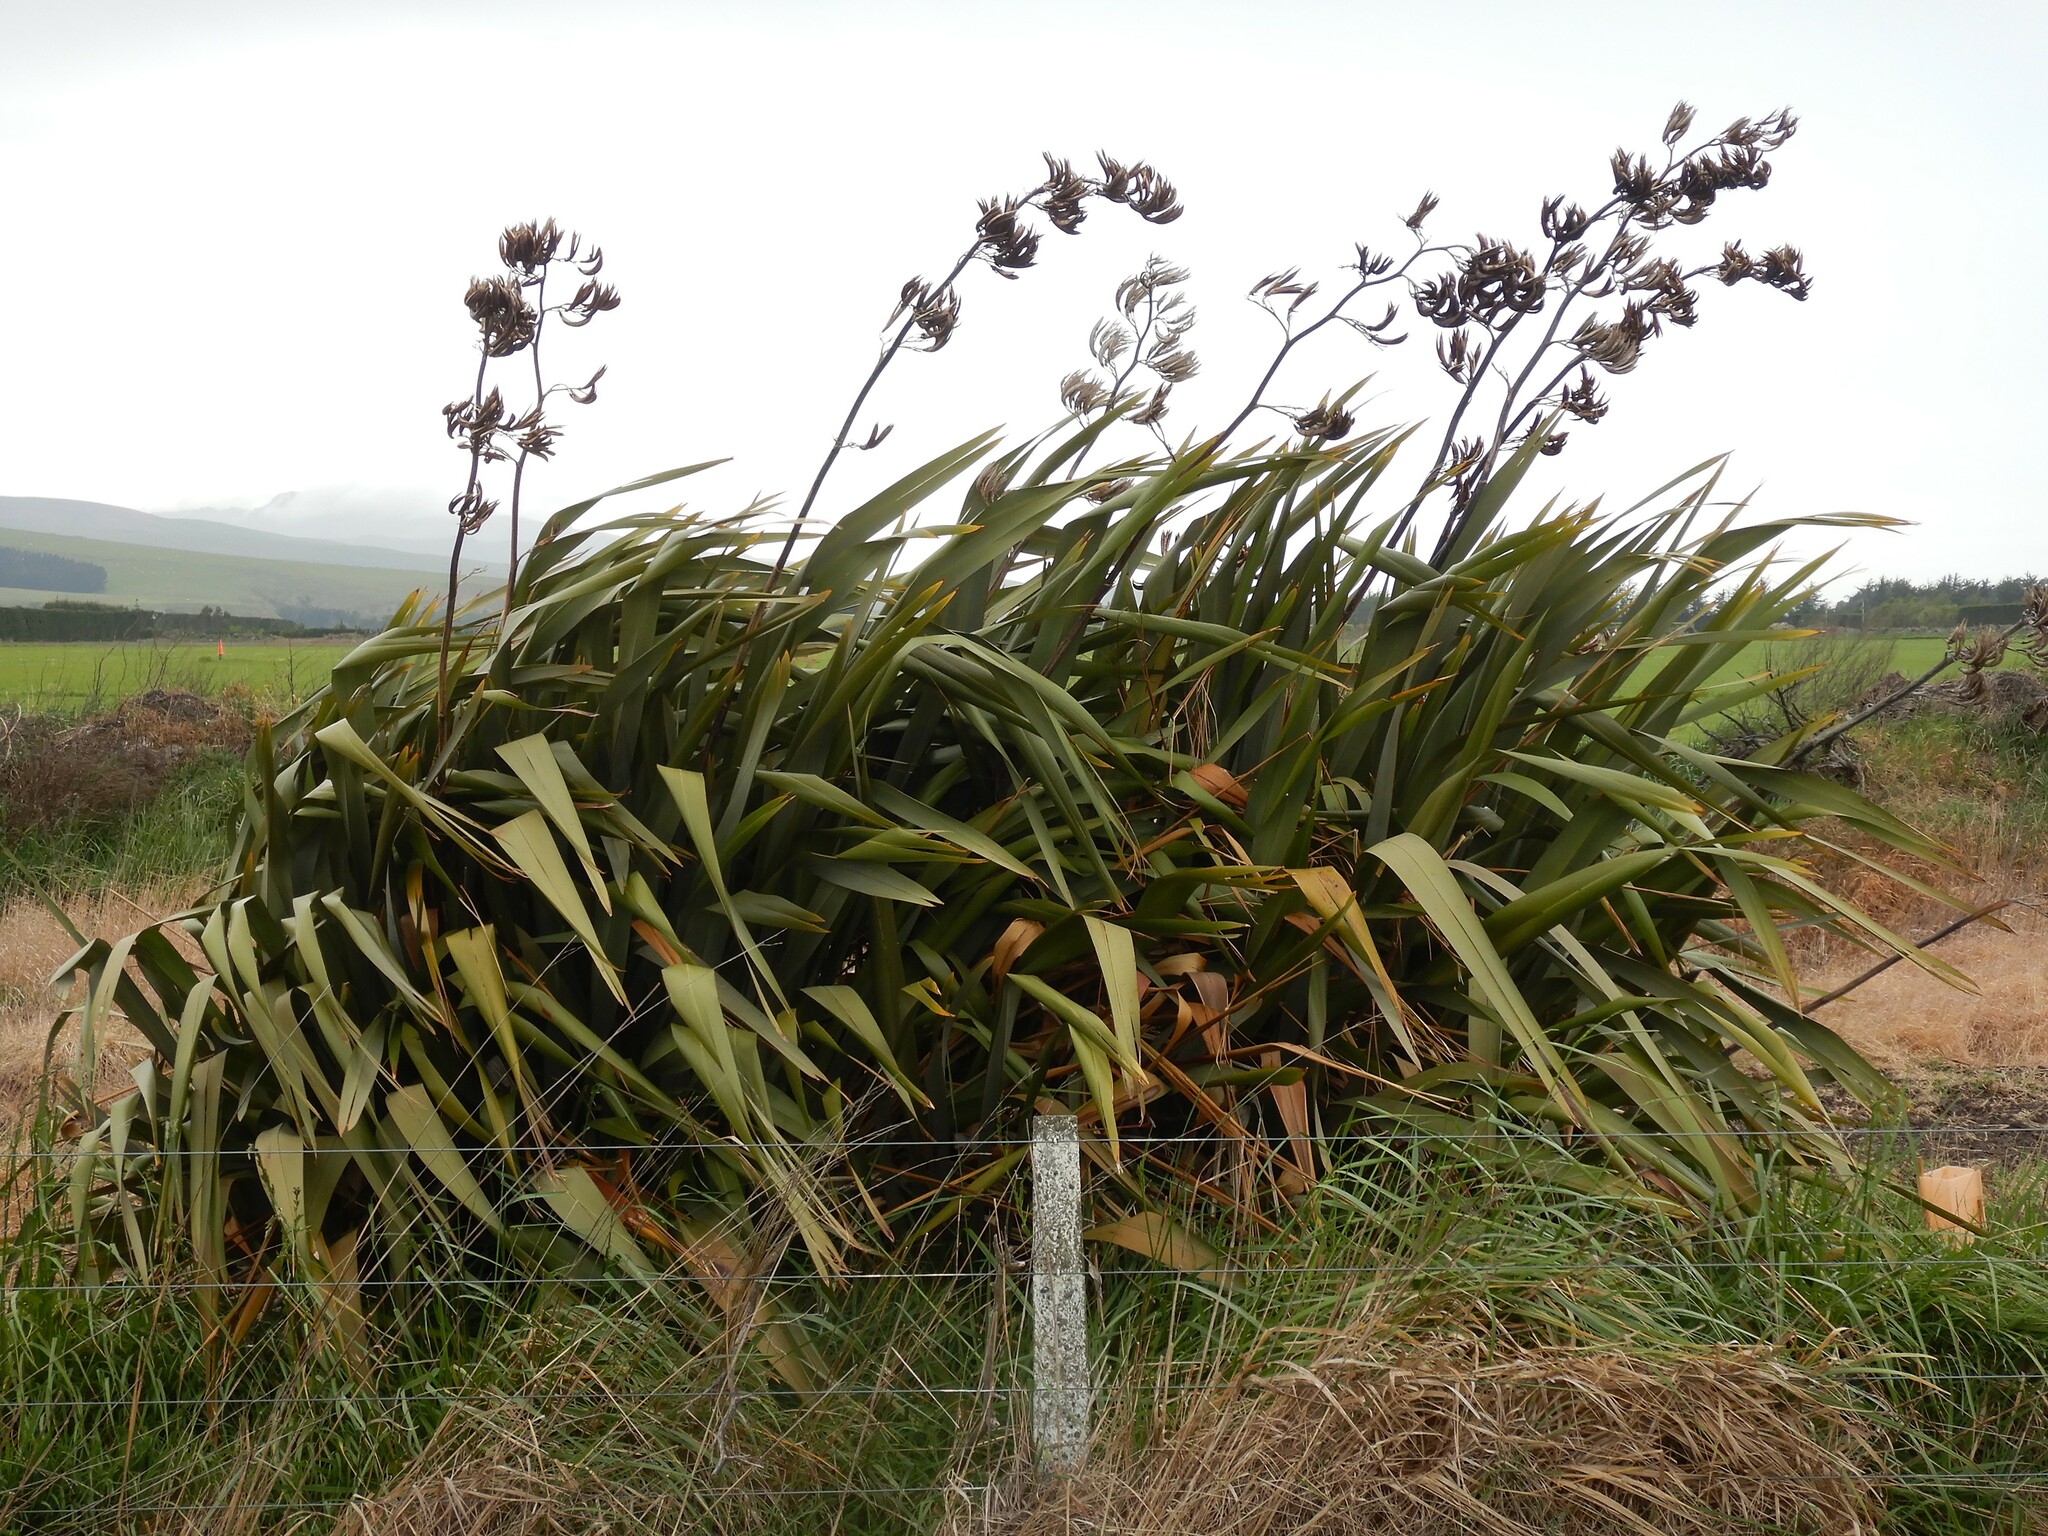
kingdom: Plantae
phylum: Tracheophyta
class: Liliopsida
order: Asparagales
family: Asphodelaceae
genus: Phormium
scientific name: Phormium tenax
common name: New zealand flax
